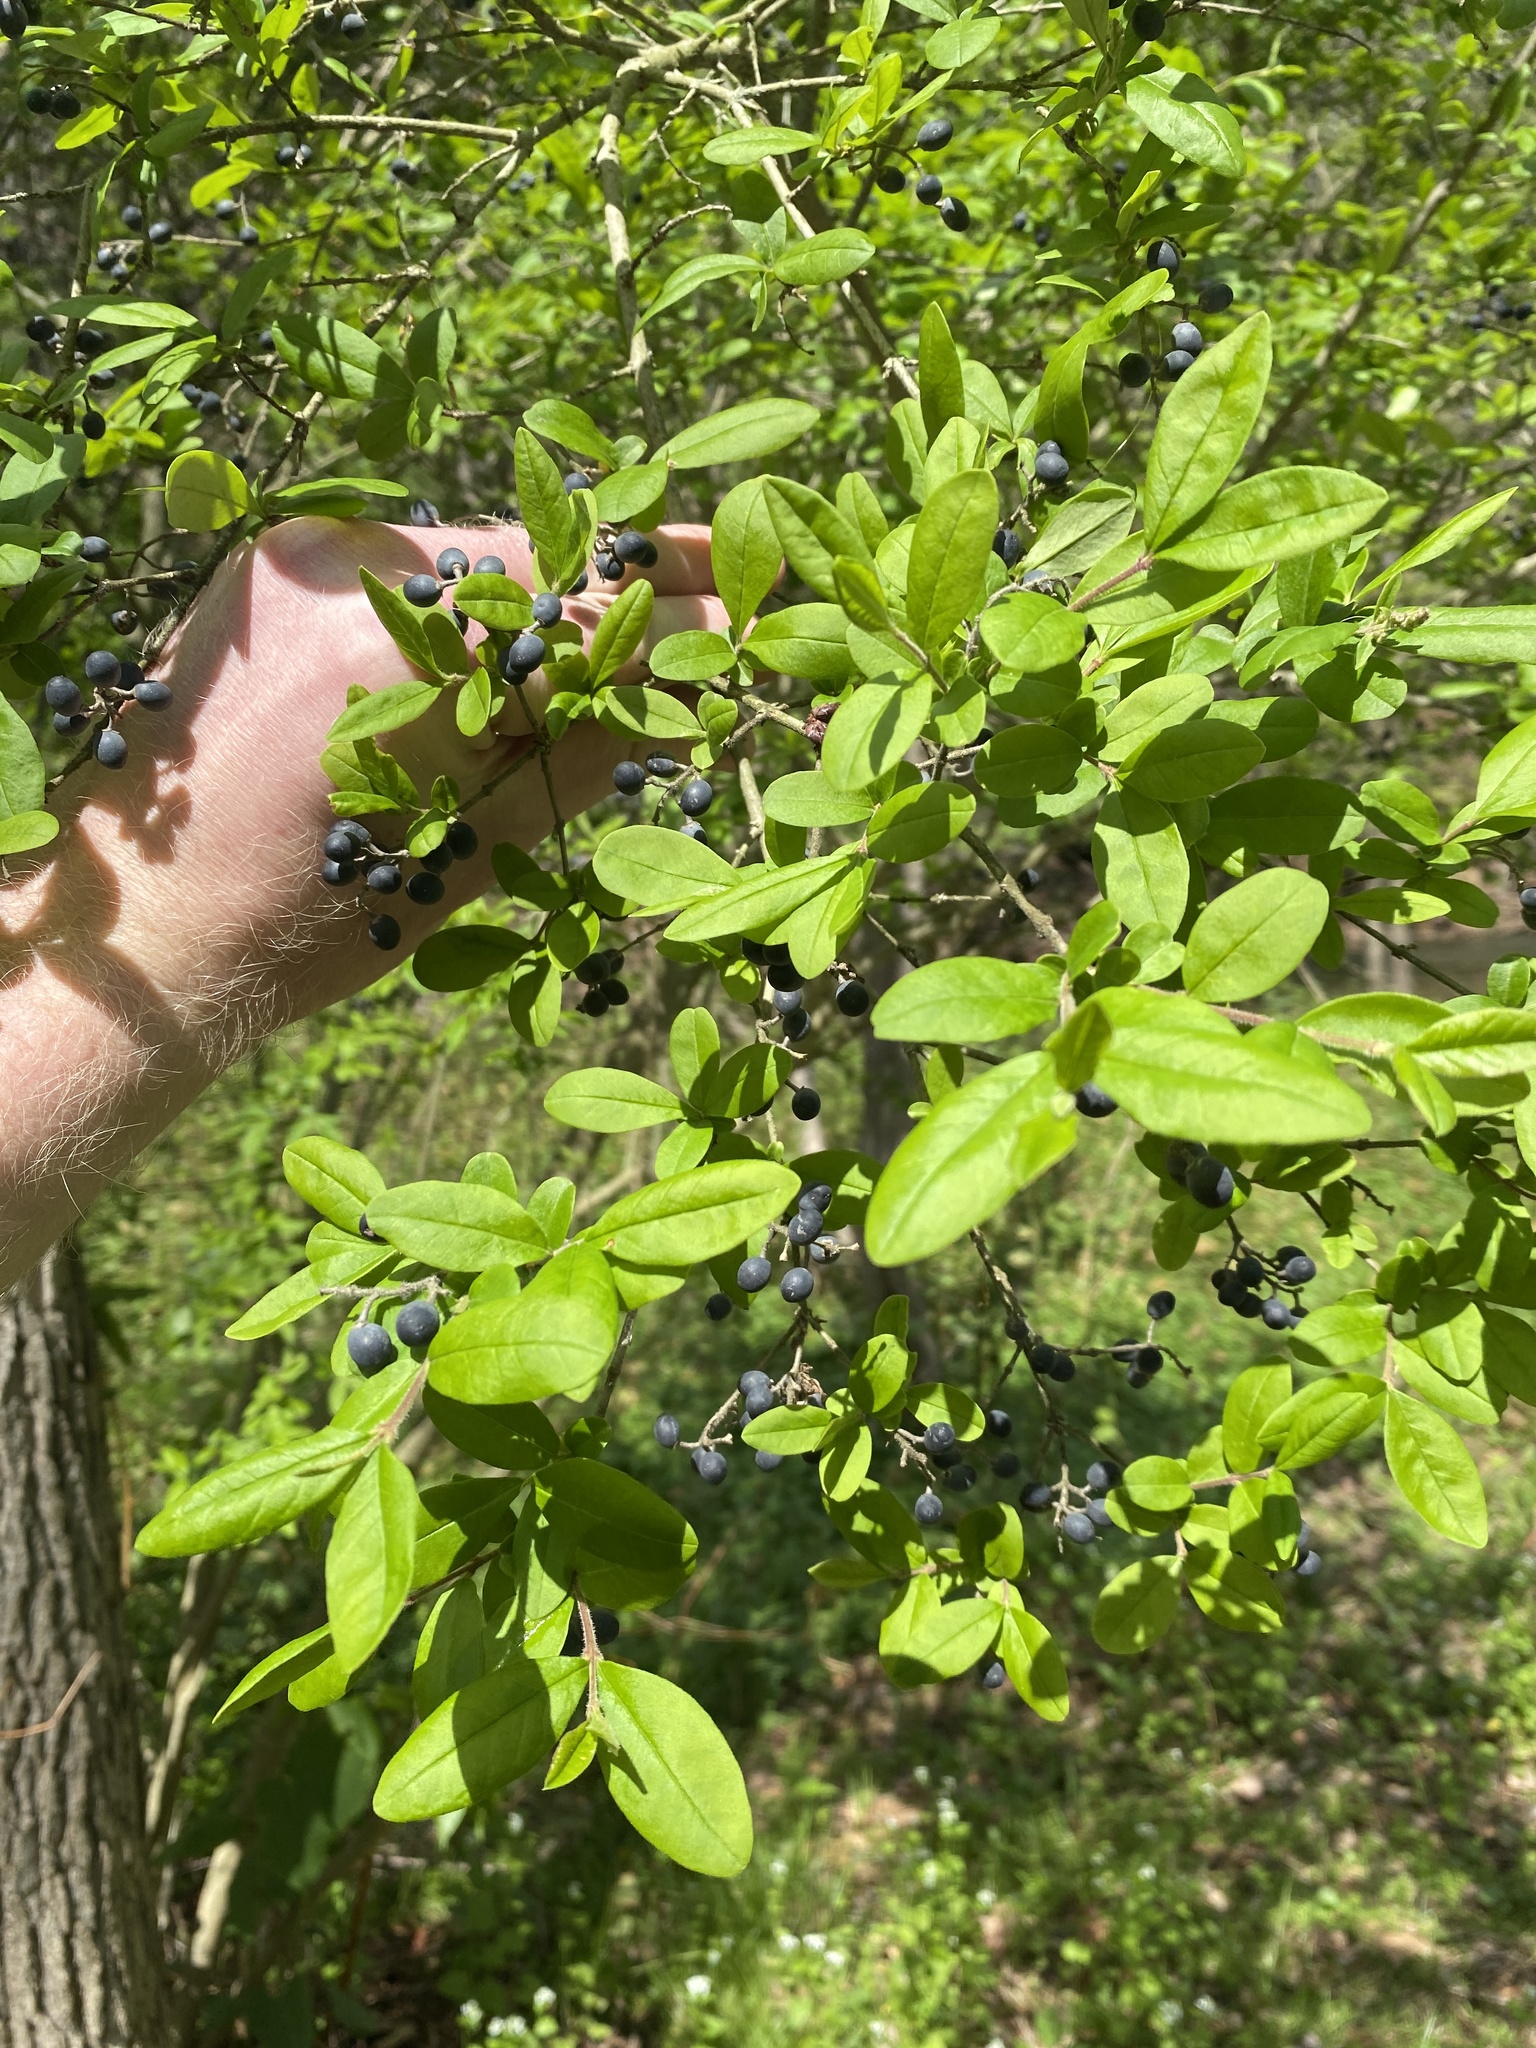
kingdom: Plantae
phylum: Tracheophyta
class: Magnoliopsida
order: Lamiales
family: Oleaceae
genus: Ligustrum
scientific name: Ligustrum obtusifolium
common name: Border privet
